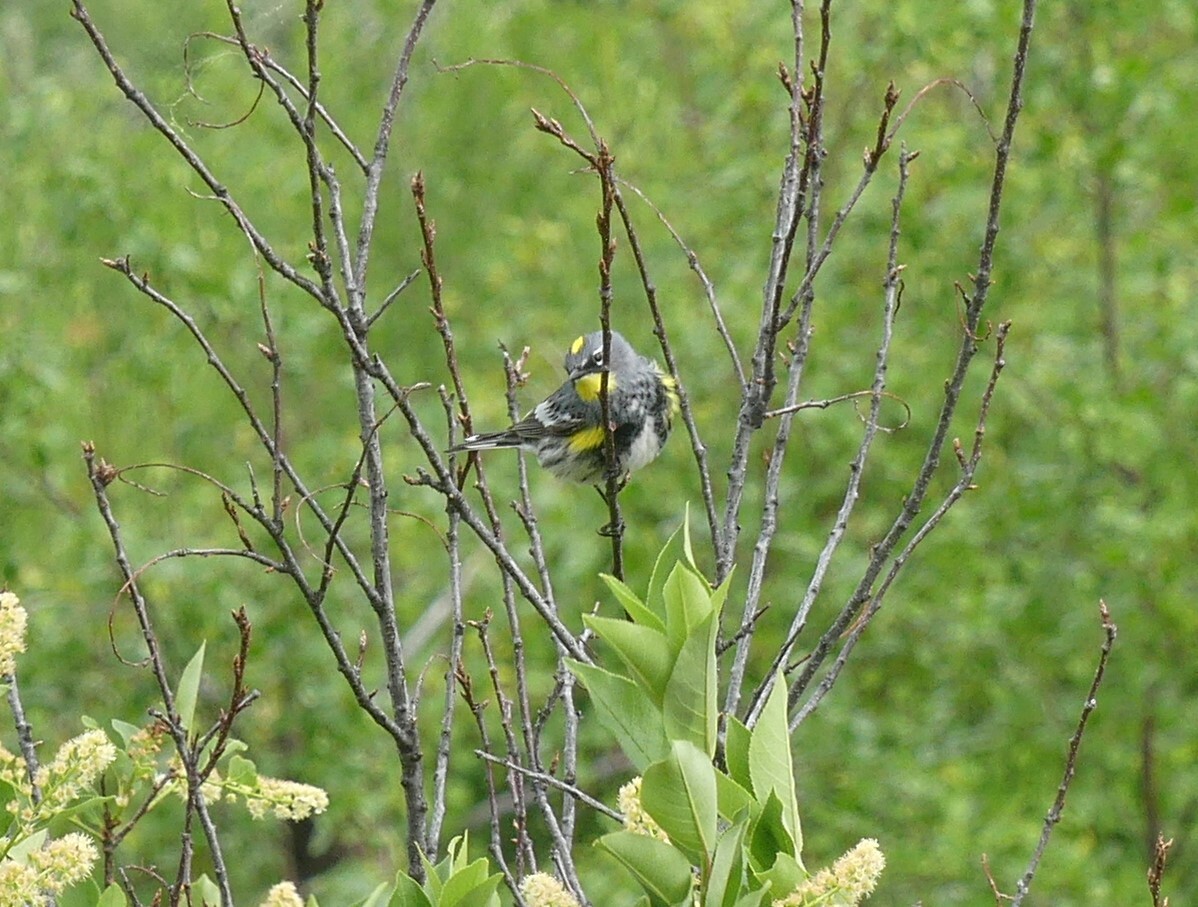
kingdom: Animalia
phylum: Chordata
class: Aves
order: Passeriformes
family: Parulidae
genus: Setophaga
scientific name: Setophaga auduboni
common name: Audubon's warbler
